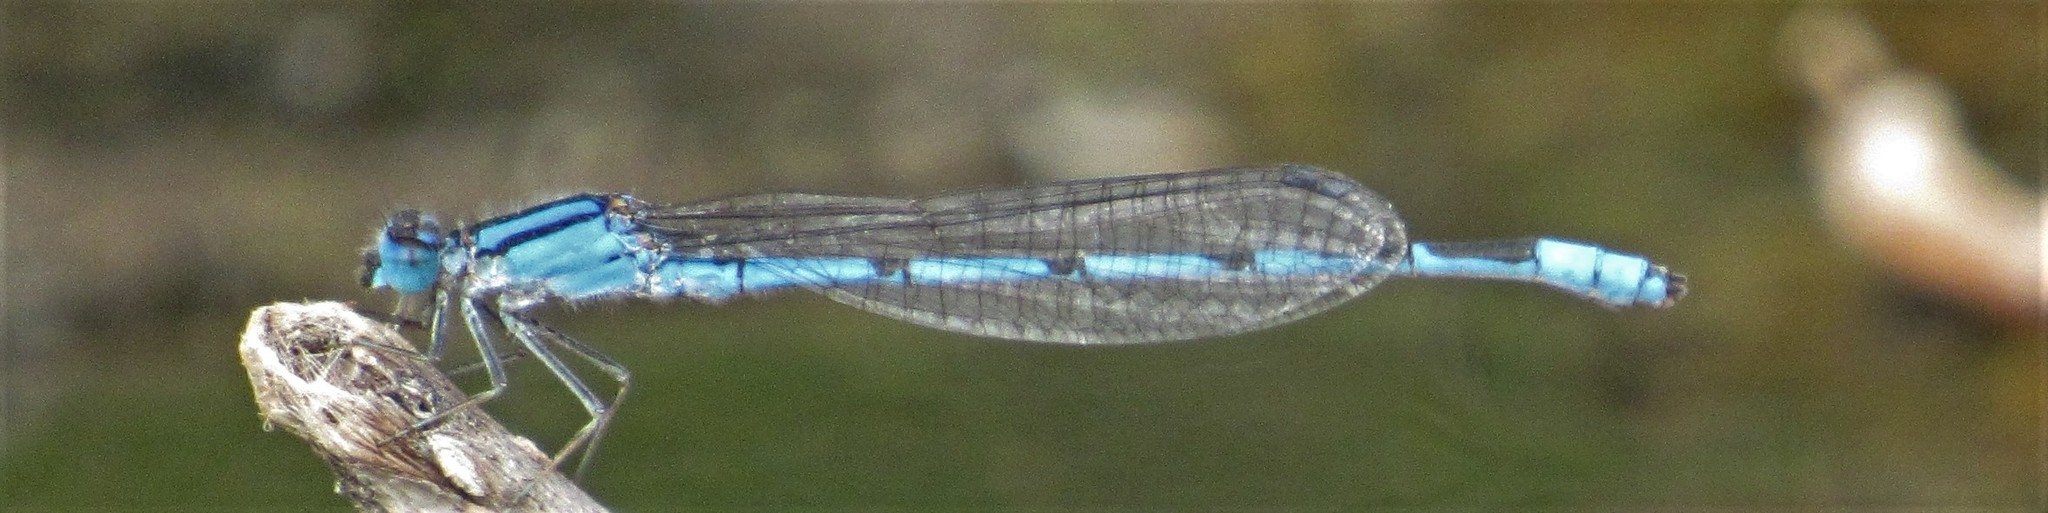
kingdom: Animalia
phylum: Arthropoda
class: Insecta
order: Odonata
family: Coenagrionidae
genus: Enallagma
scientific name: Enallagma civile
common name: Damselfly
